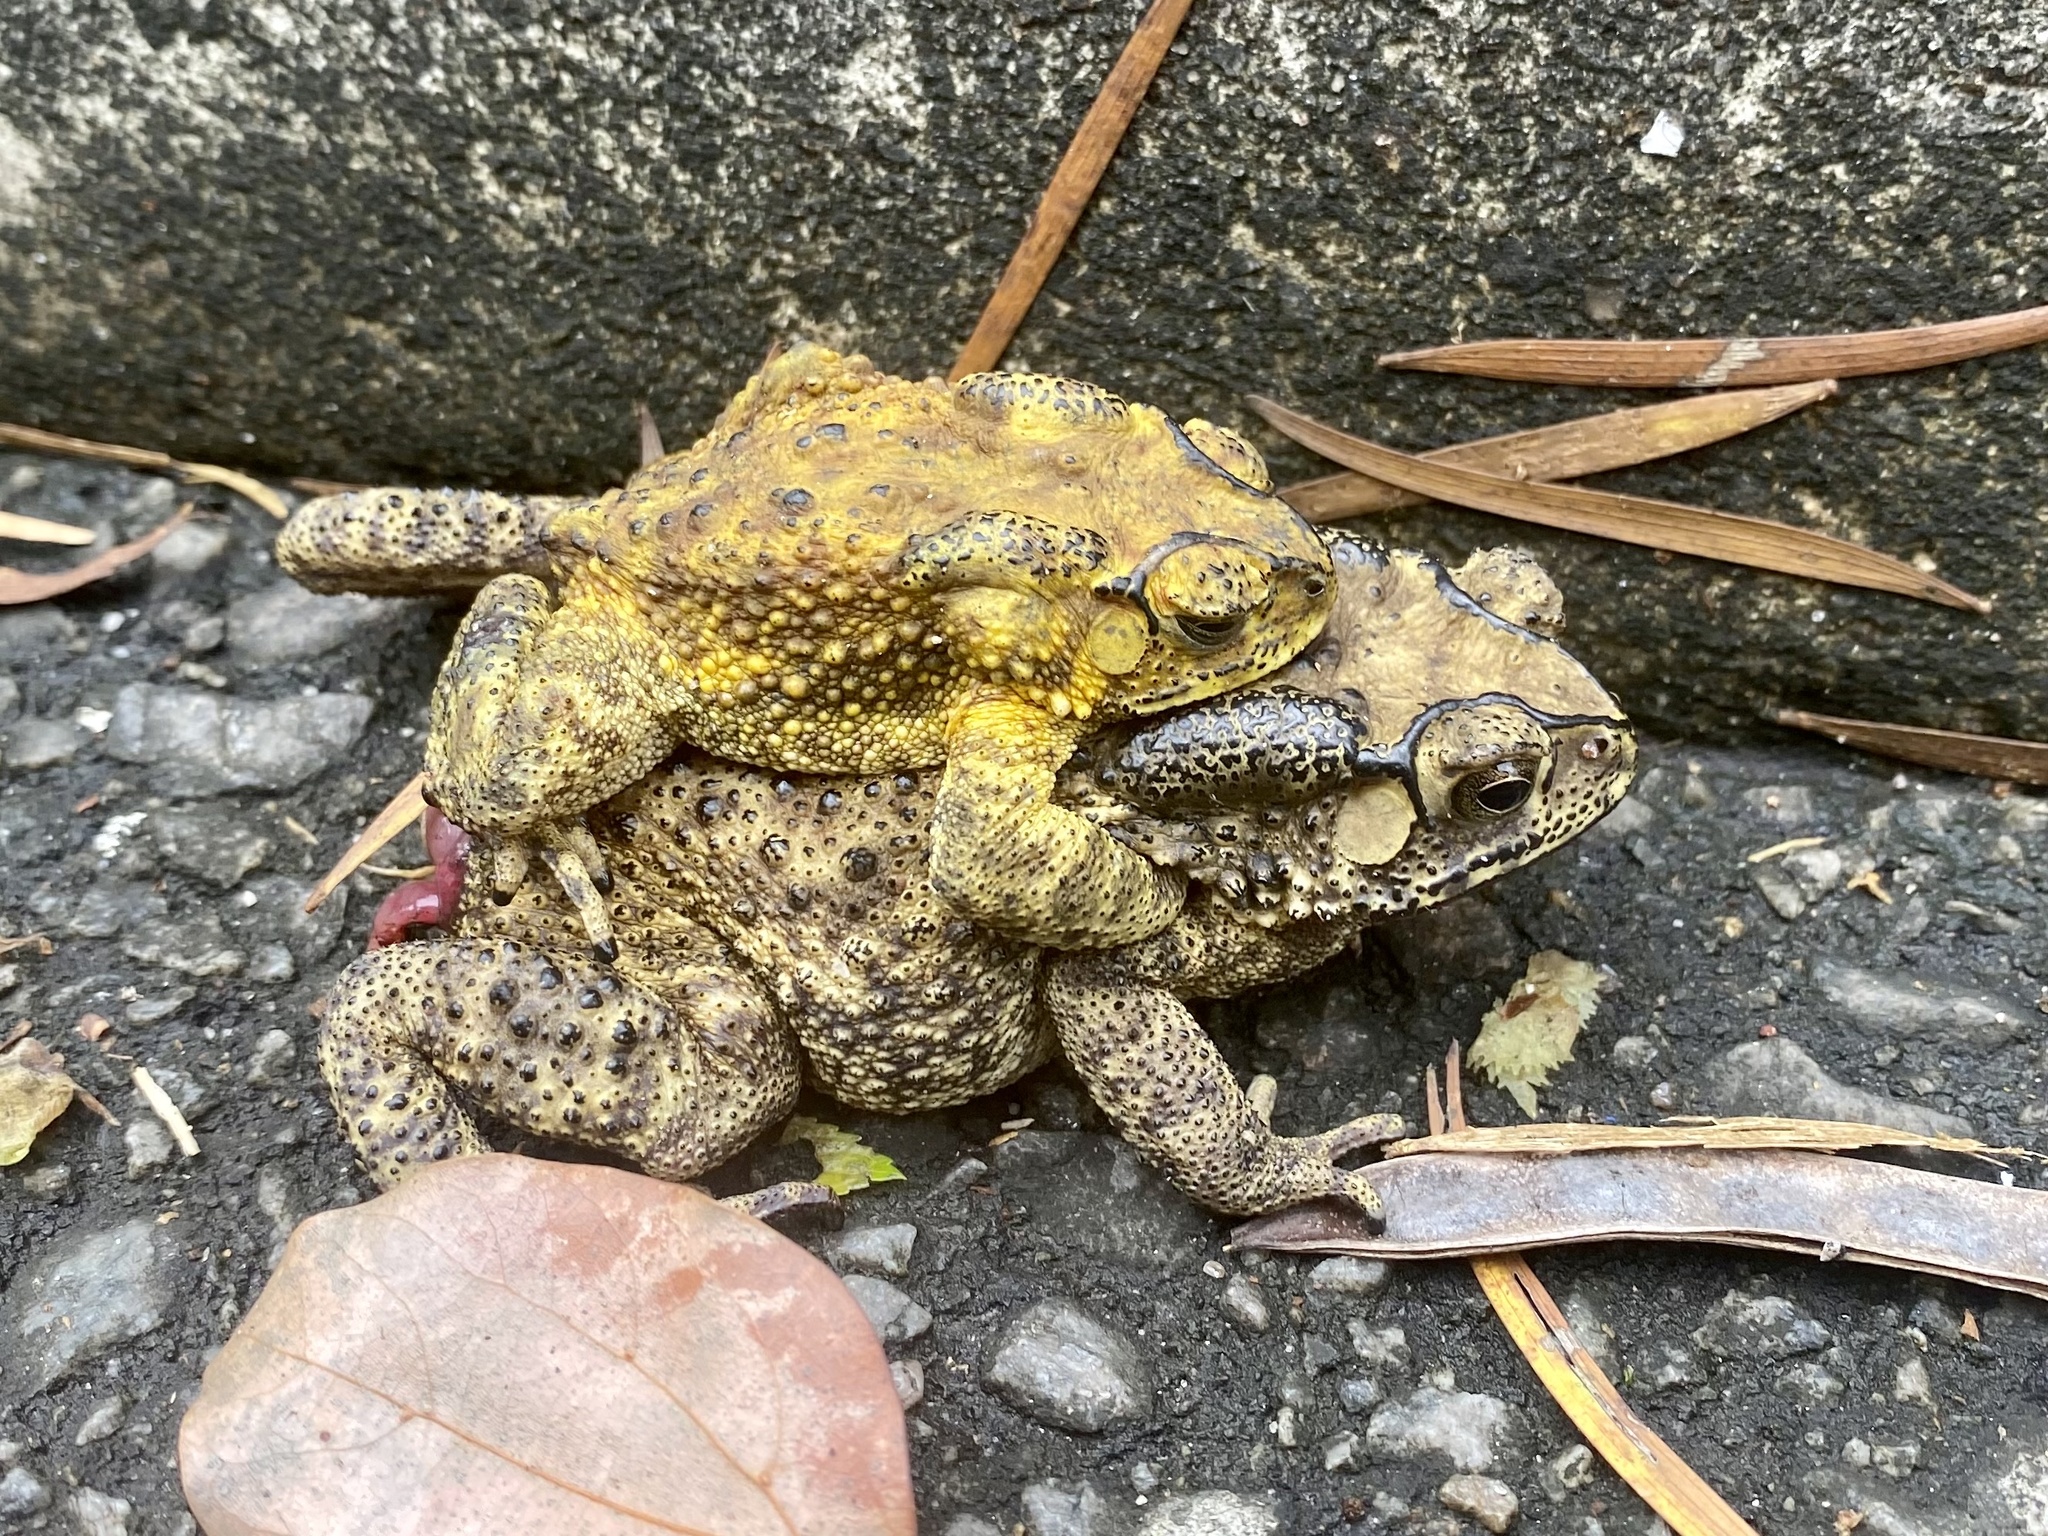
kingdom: Animalia
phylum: Chordata
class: Amphibia
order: Anura
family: Bufonidae
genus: Duttaphrynus
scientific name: Duttaphrynus melanostictus
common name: Common sunda toad
